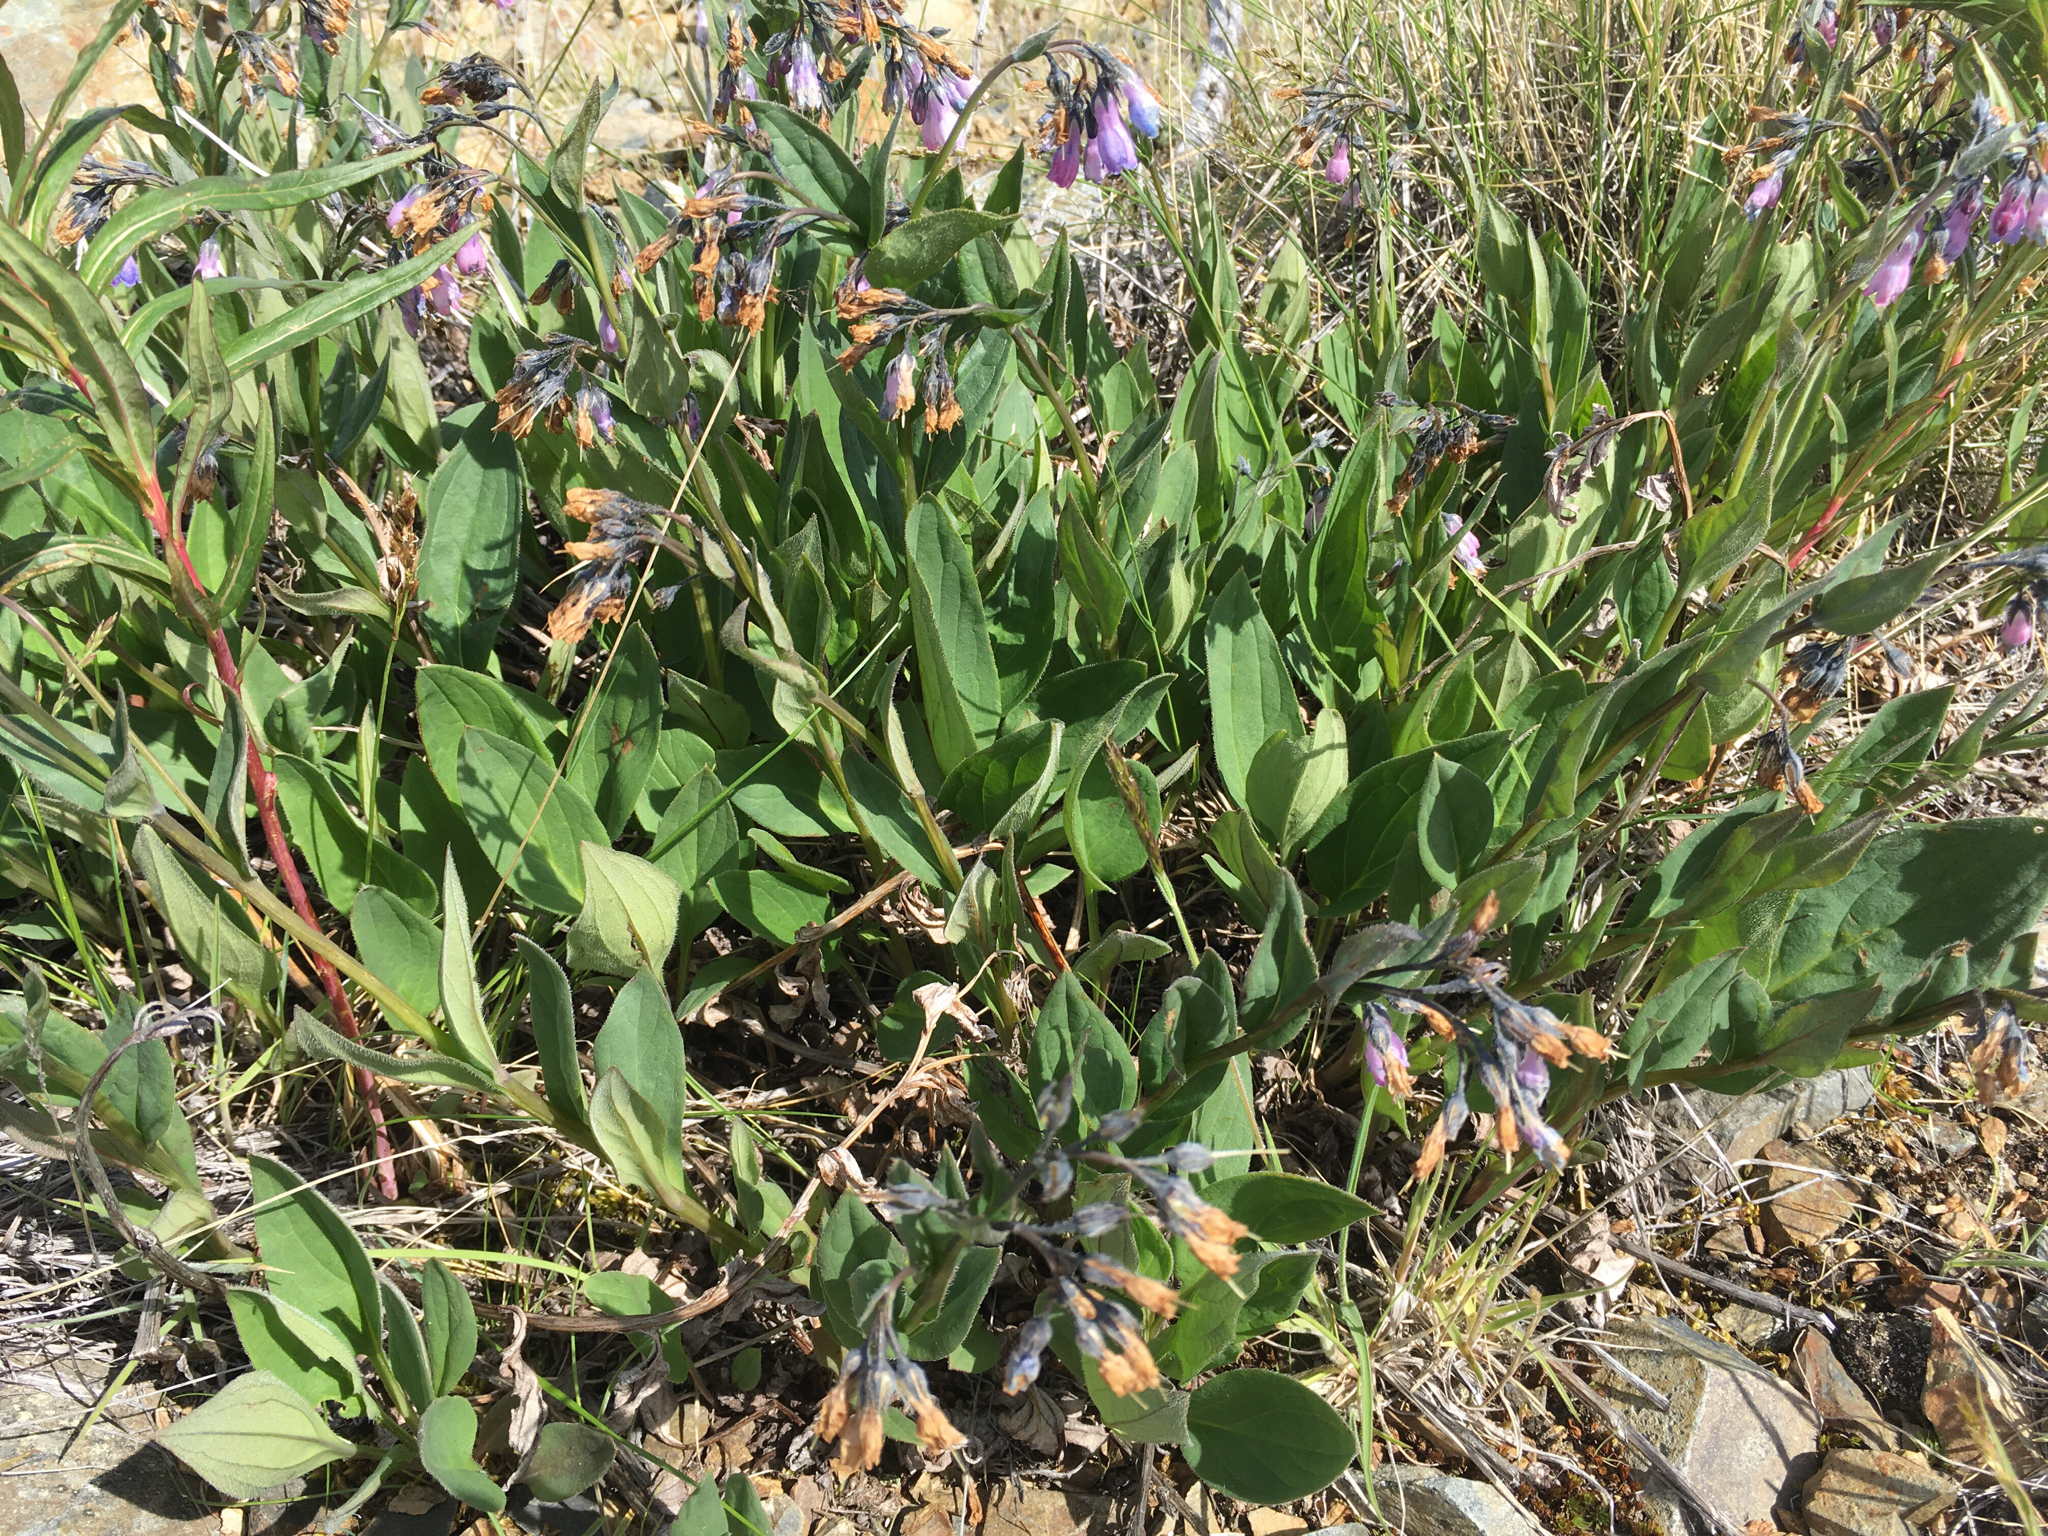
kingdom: Plantae
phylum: Tracheophyta
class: Magnoliopsida
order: Boraginales
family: Boraginaceae
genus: Mertensia
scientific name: Mertensia paniculata
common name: Panicled bluebells
